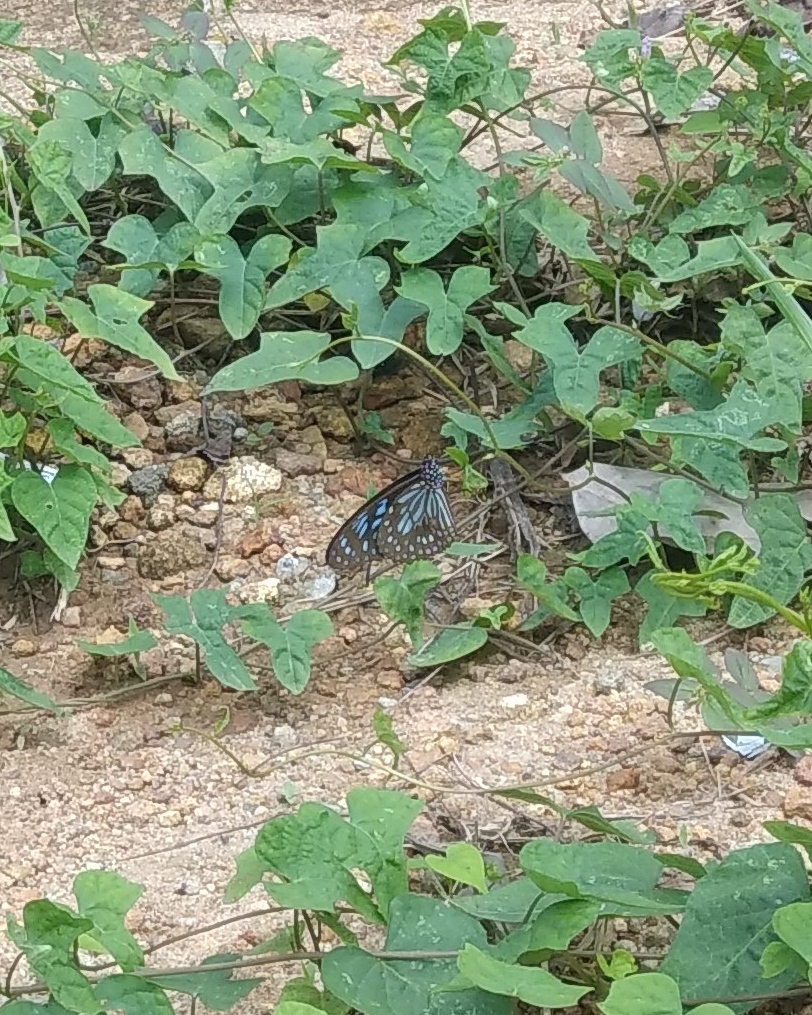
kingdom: Animalia
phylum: Arthropoda
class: Insecta
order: Lepidoptera
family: Nymphalidae
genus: Tirumala
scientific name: Tirumala septentrionis
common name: Dark blue tiger butterfly
